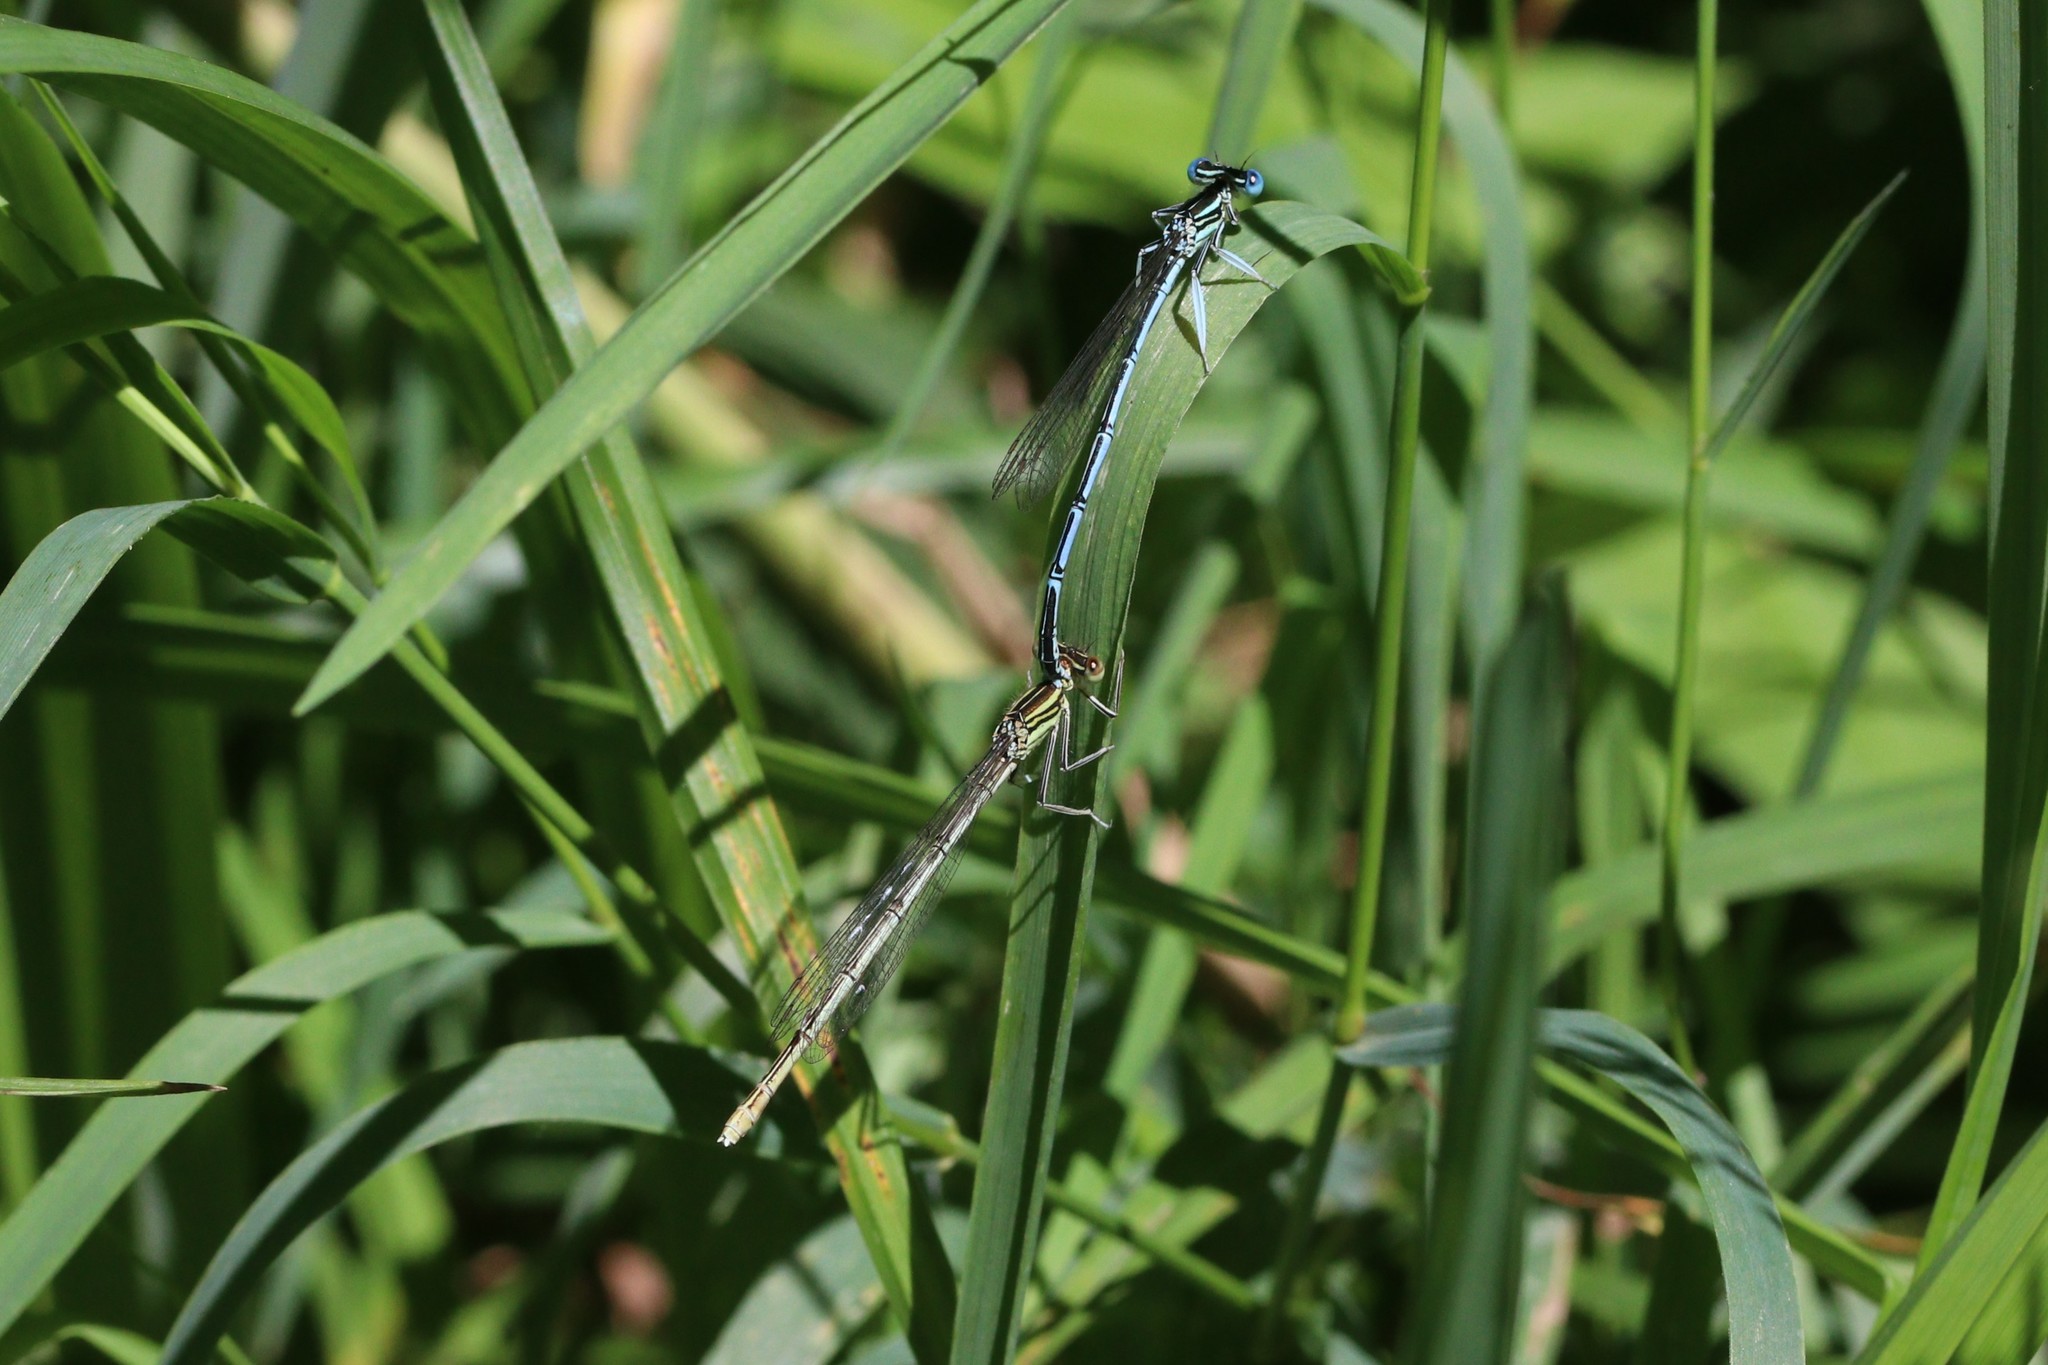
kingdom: Animalia
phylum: Arthropoda
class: Insecta
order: Odonata
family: Platycnemididae
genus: Platycnemis
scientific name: Platycnemis pennipes
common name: White-legged damselfly
